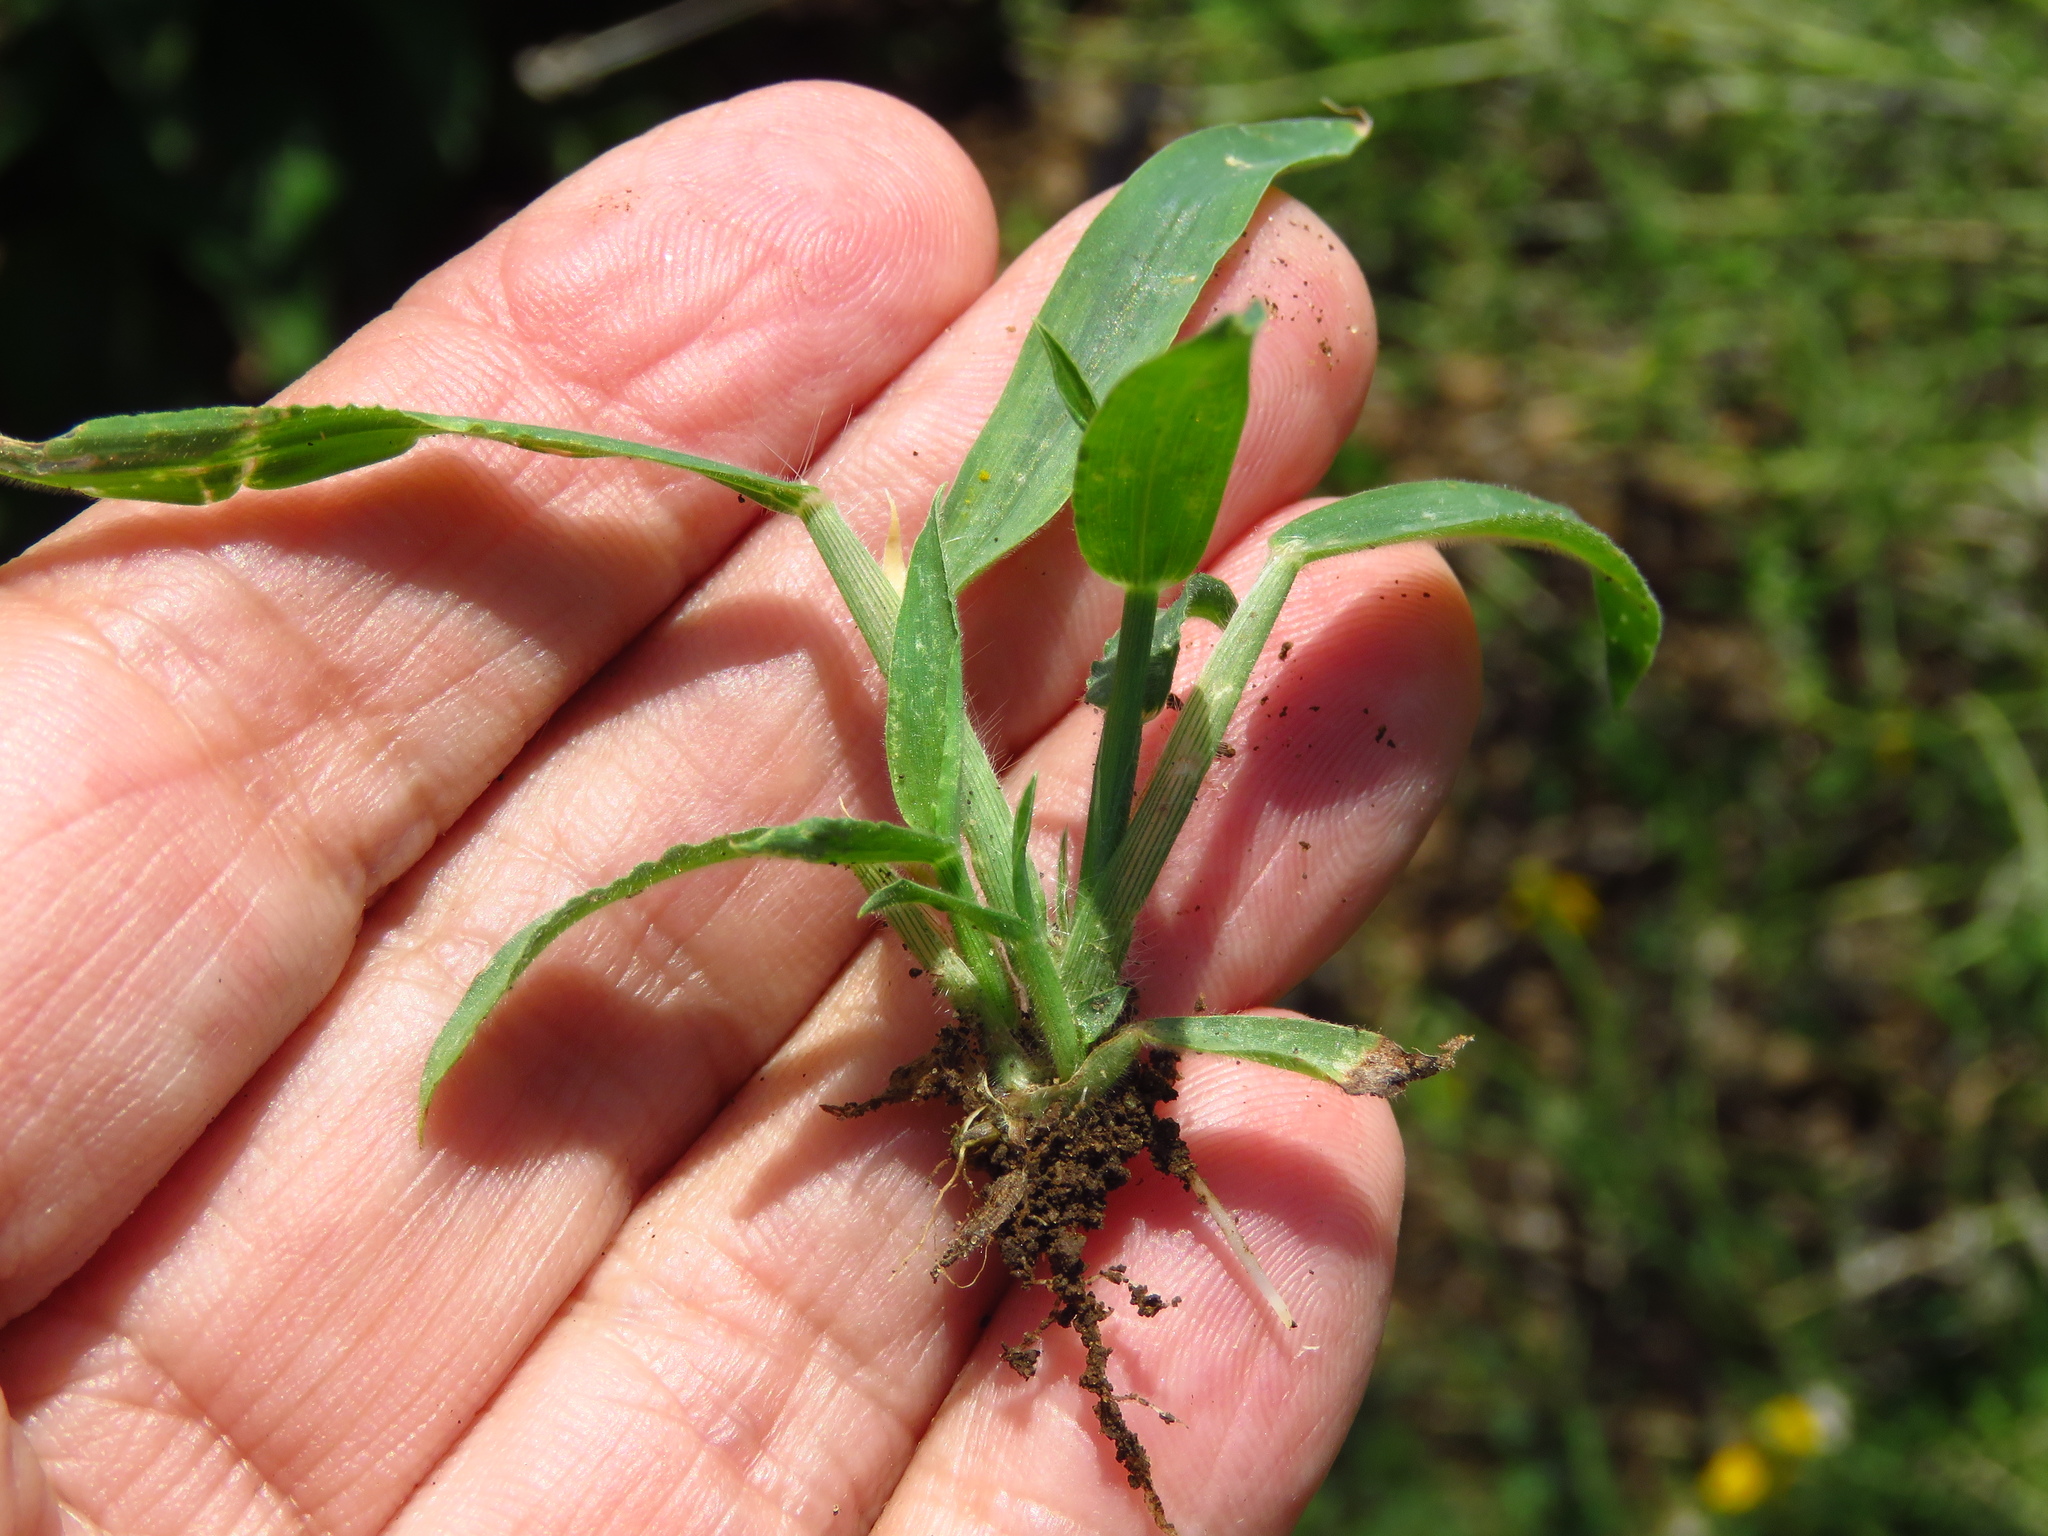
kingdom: Plantae
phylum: Tracheophyta
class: Liliopsida
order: Poales
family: Poaceae
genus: Digitaria
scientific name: Digitaria sanguinalis
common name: Hairy crabgrass
